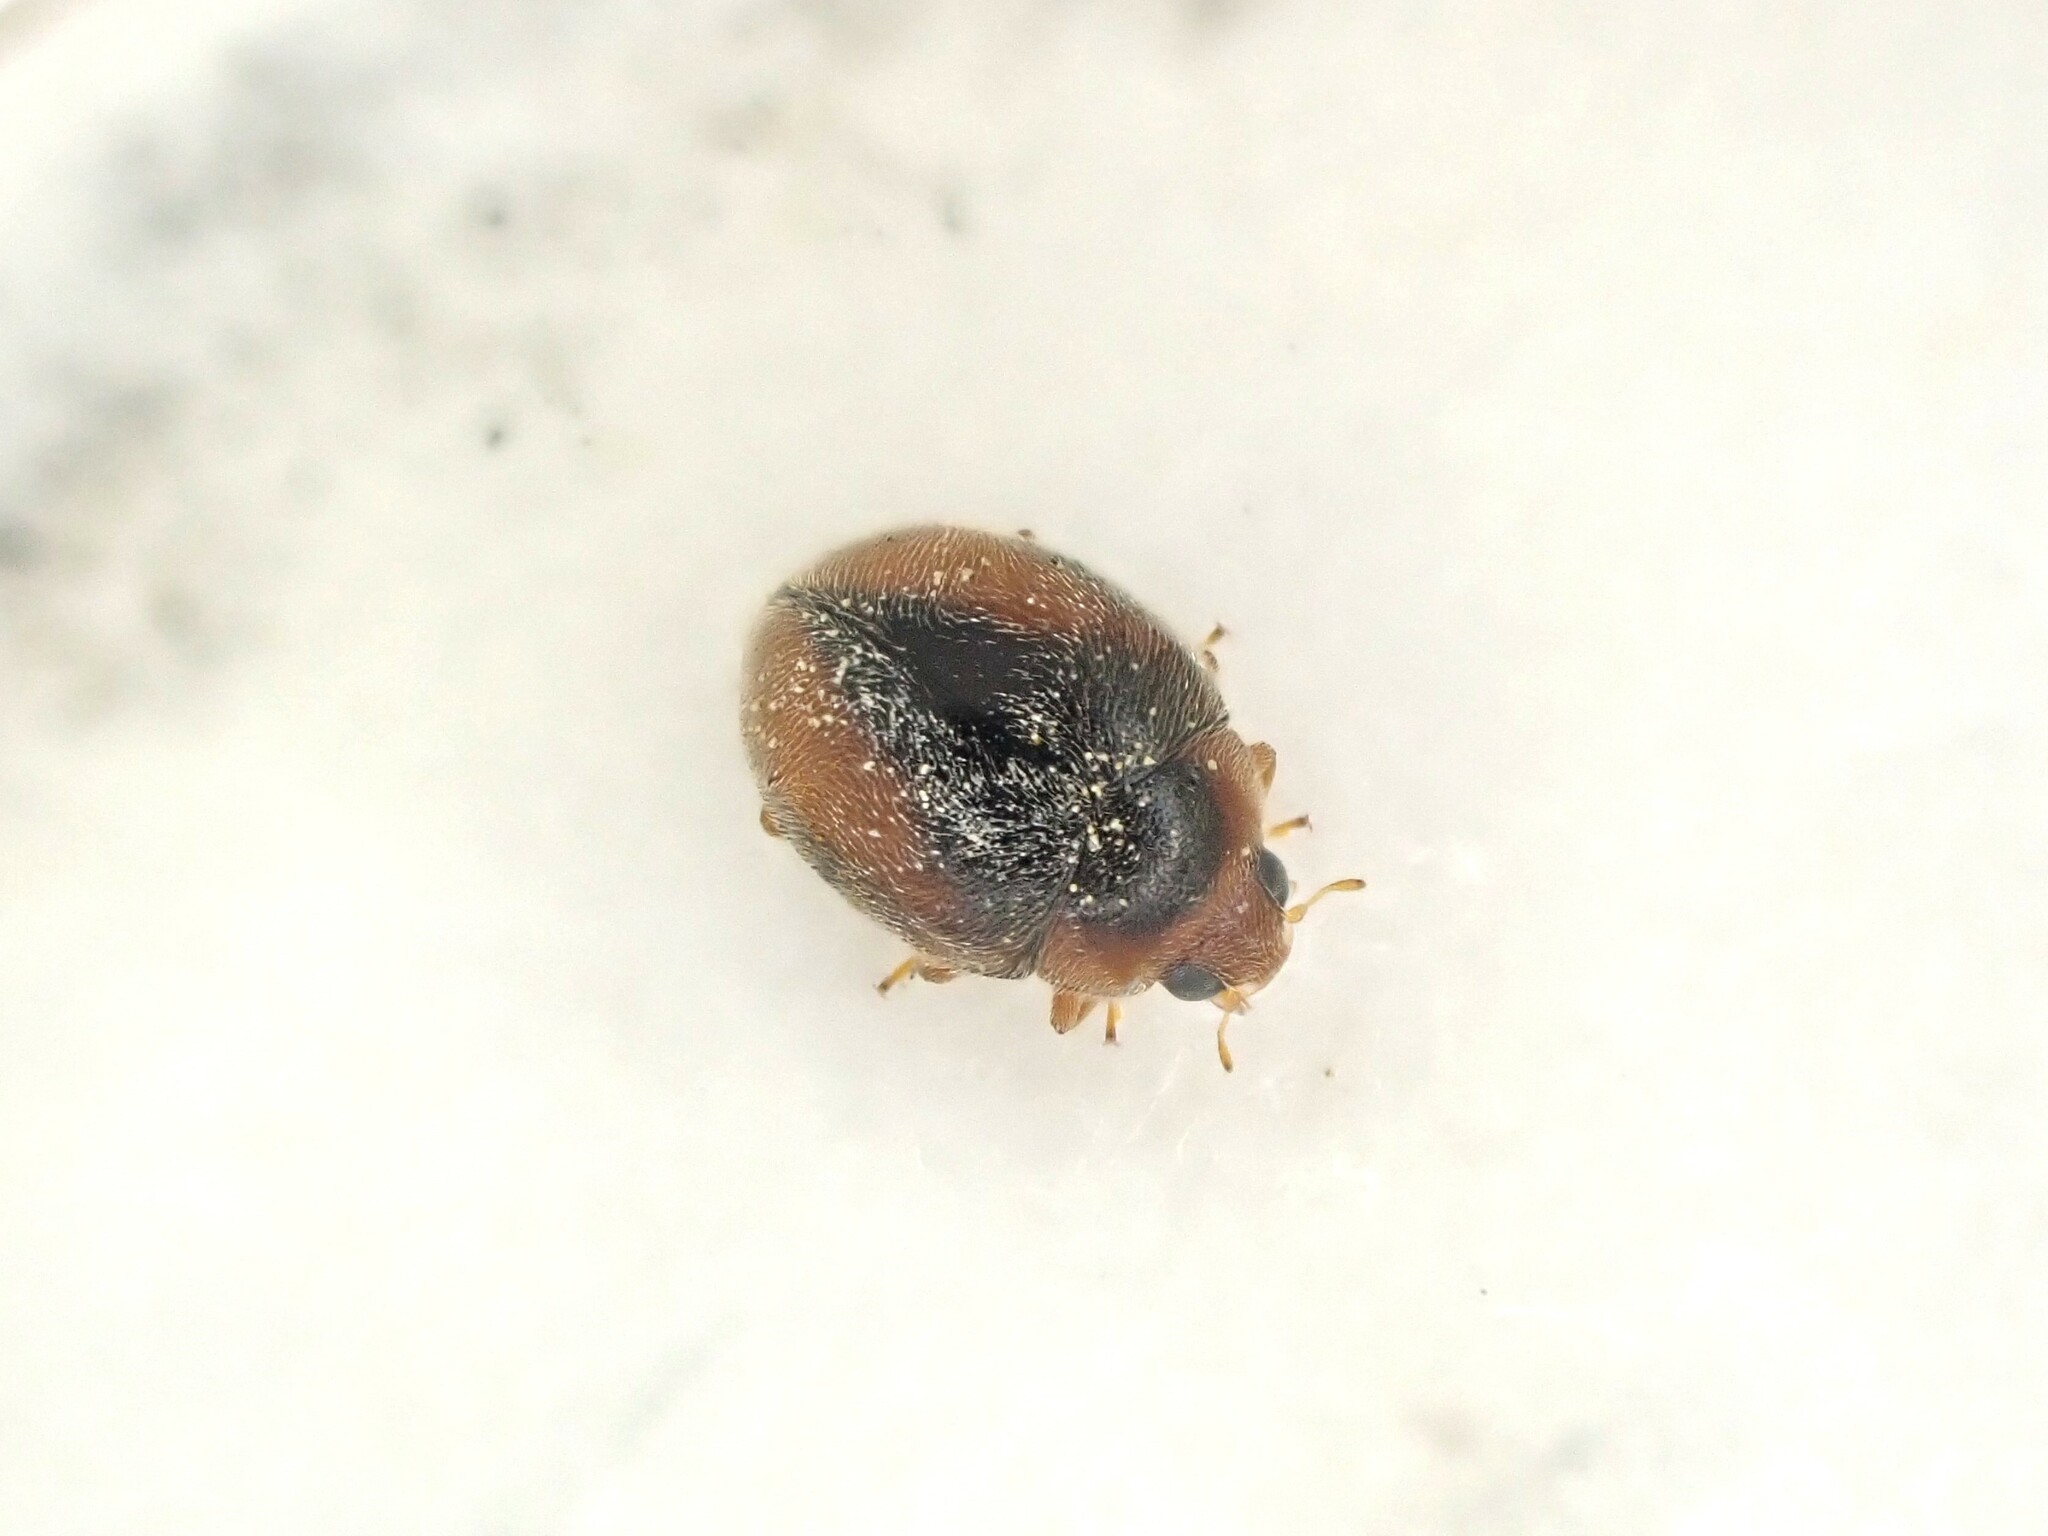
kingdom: Animalia
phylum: Arthropoda
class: Insecta
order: Coleoptera
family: Coccinellidae
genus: Scymnus
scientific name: Scymnus loewii
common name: Dusky lady beetle
